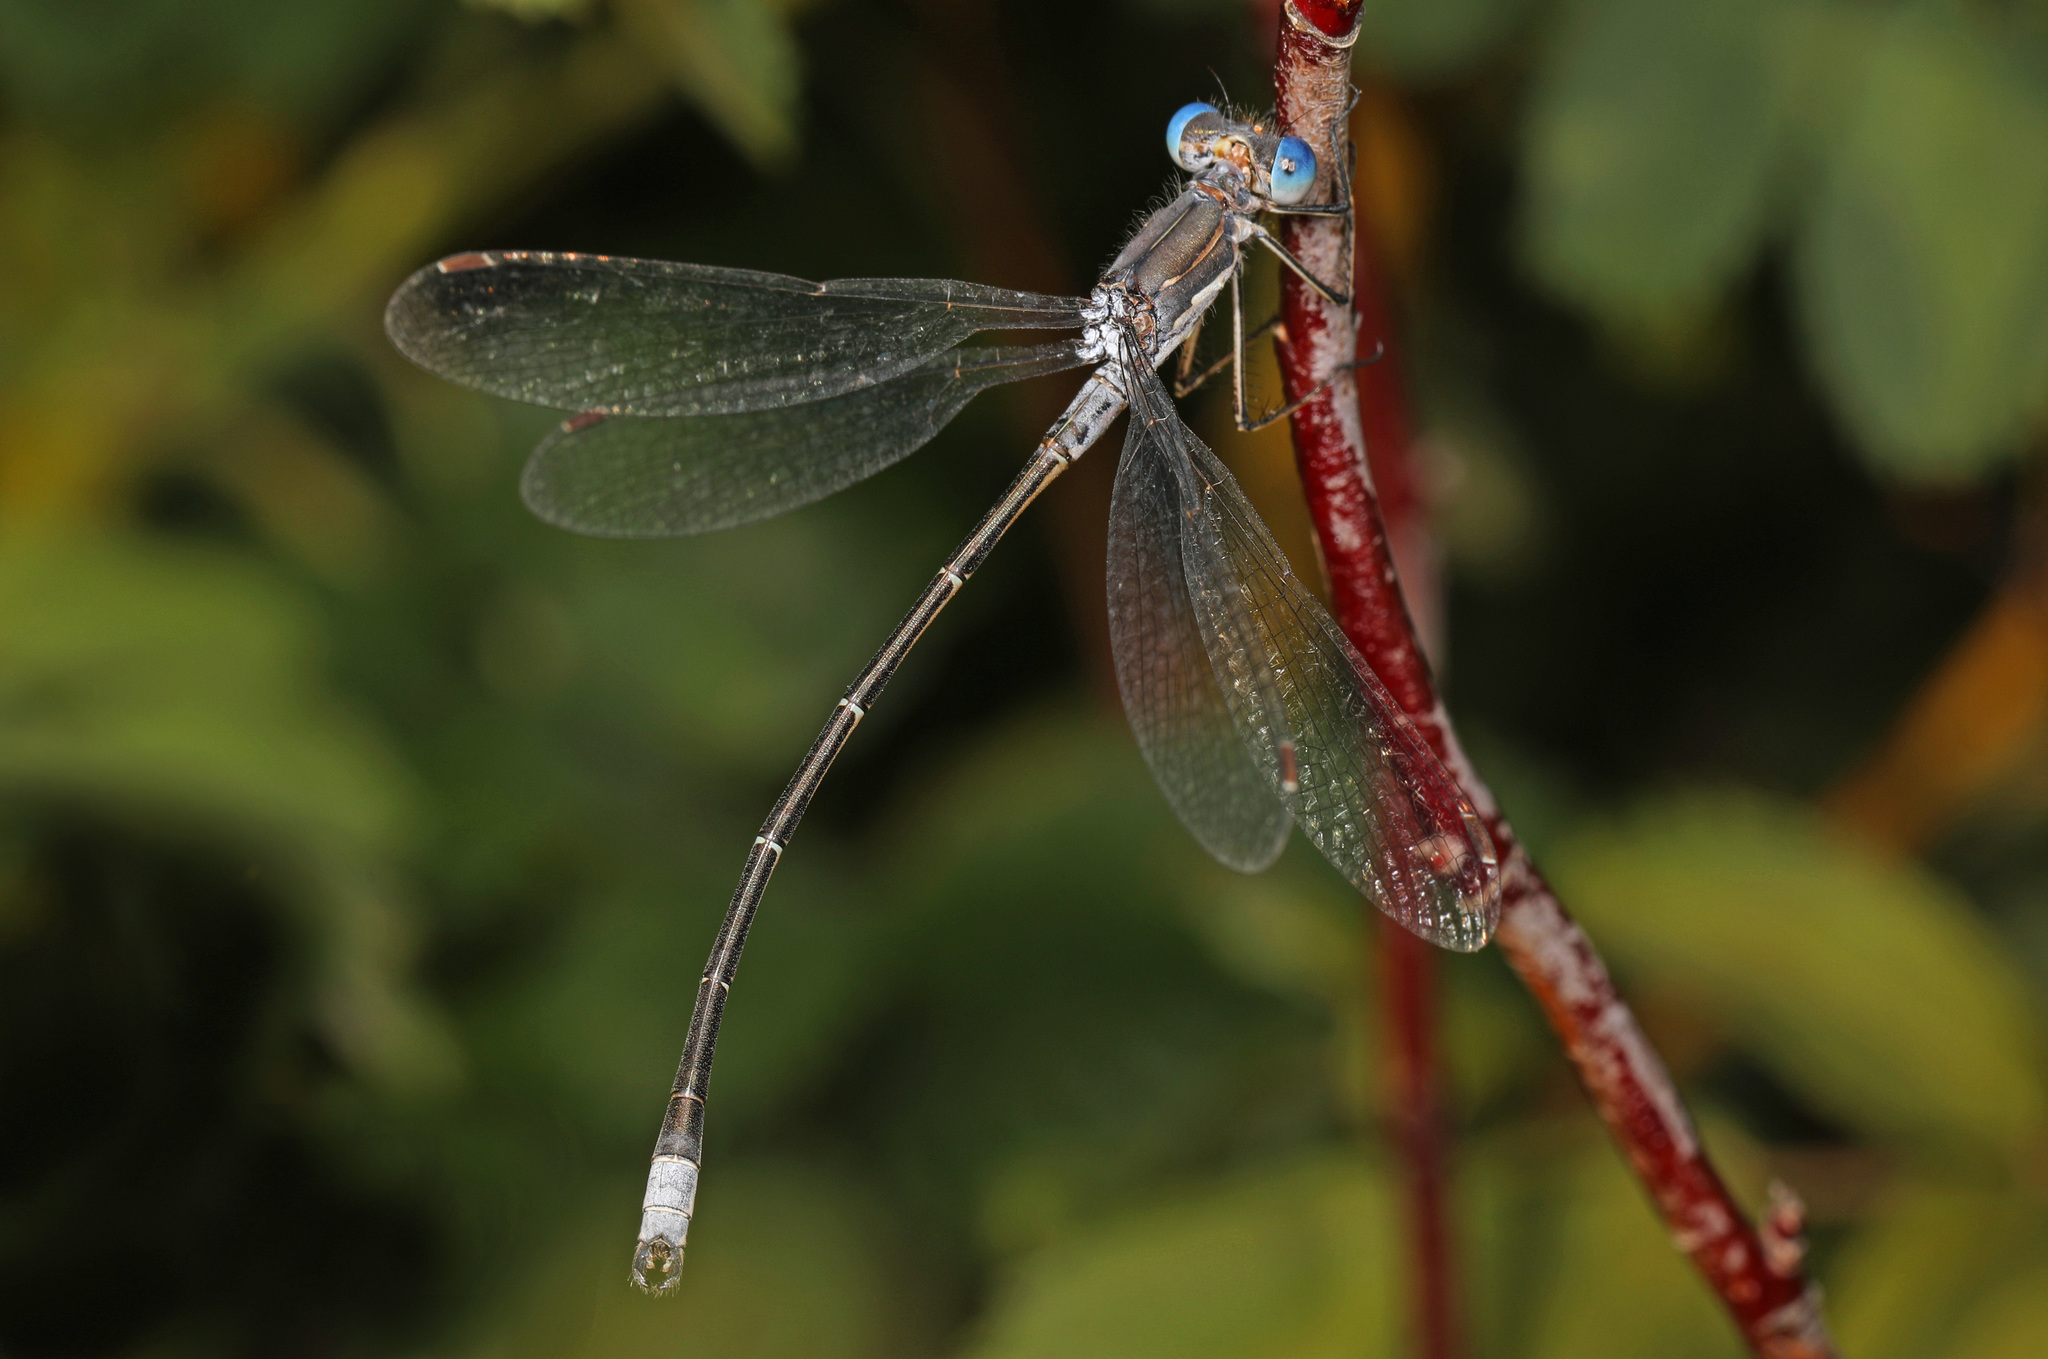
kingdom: Animalia
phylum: Arthropoda
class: Insecta
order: Odonata
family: Lestidae
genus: Lestes
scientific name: Lestes congener
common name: Spotted spreadwing
